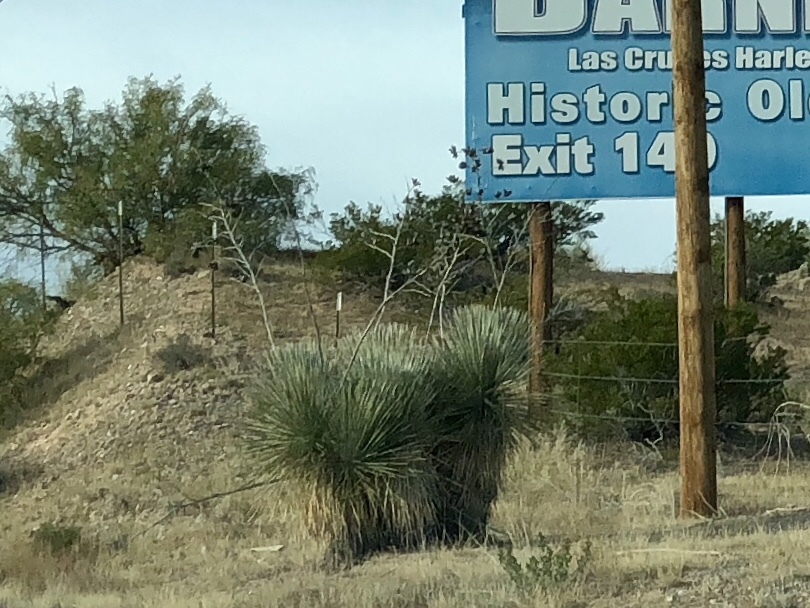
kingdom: Plantae
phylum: Tracheophyta
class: Liliopsida
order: Asparagales
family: Asparagaceae
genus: Yucca
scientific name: Yucca elata
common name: Palmella
